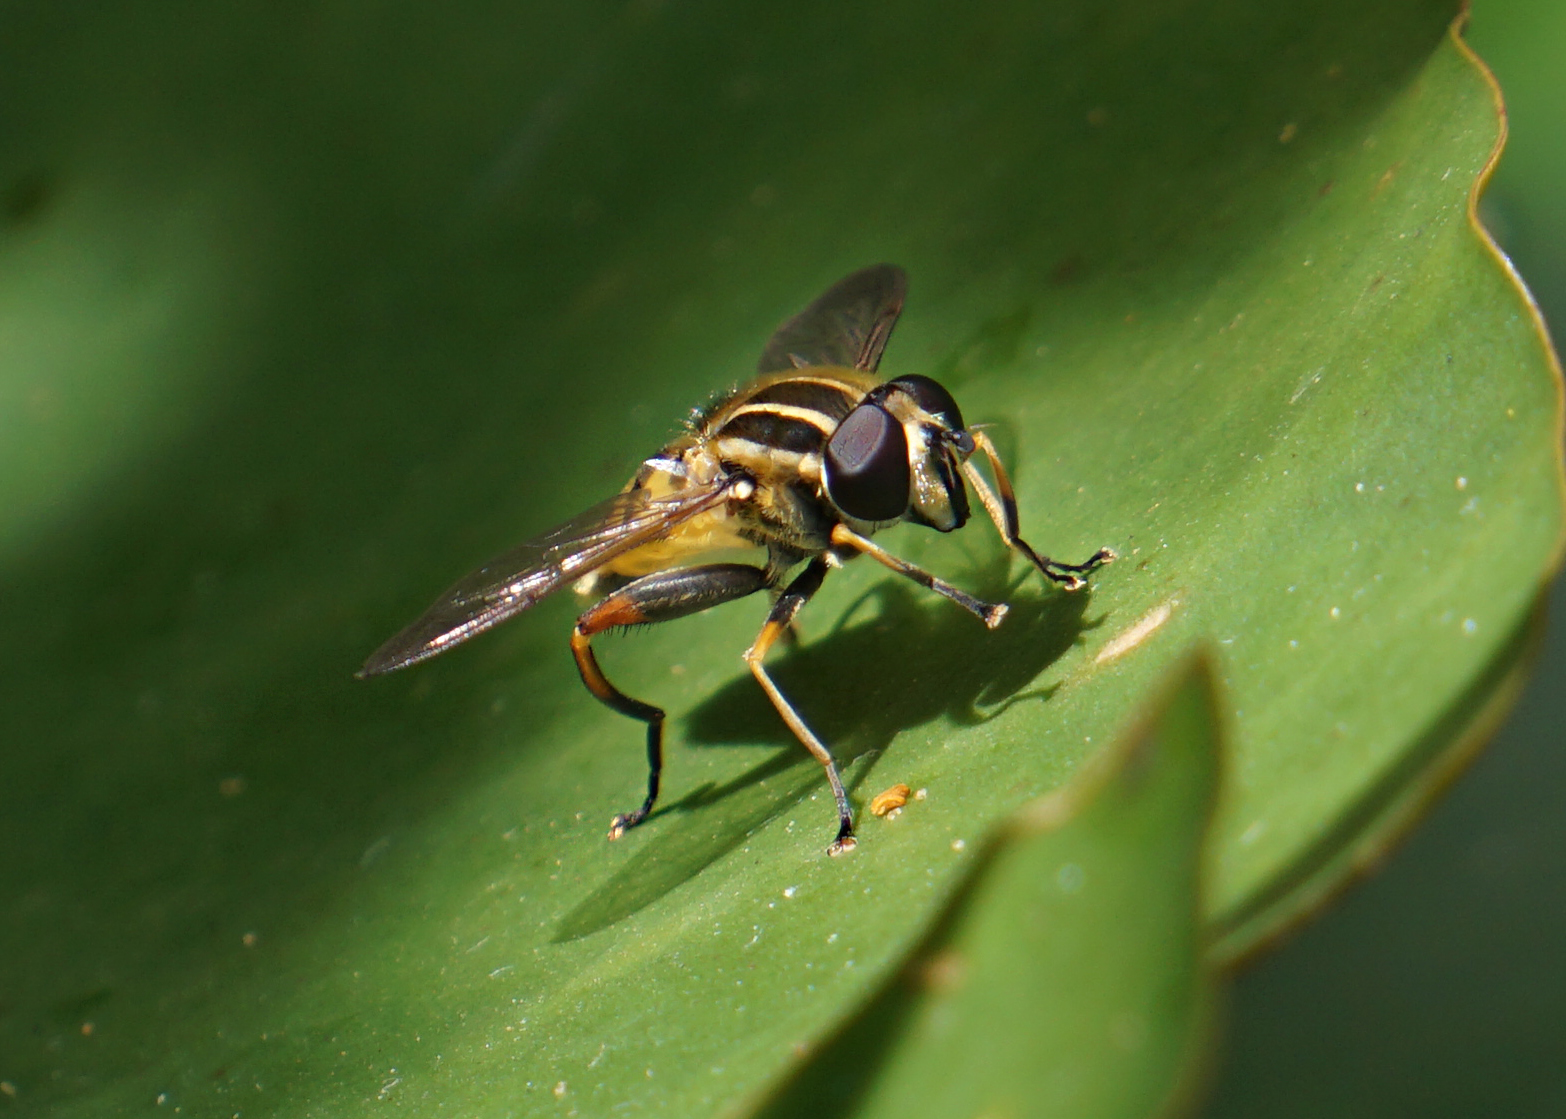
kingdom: Animalia
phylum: Arthropoda
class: Insecta
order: Diptera
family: Syrphidae
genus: Helophilus
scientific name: Helophilus pendulus
